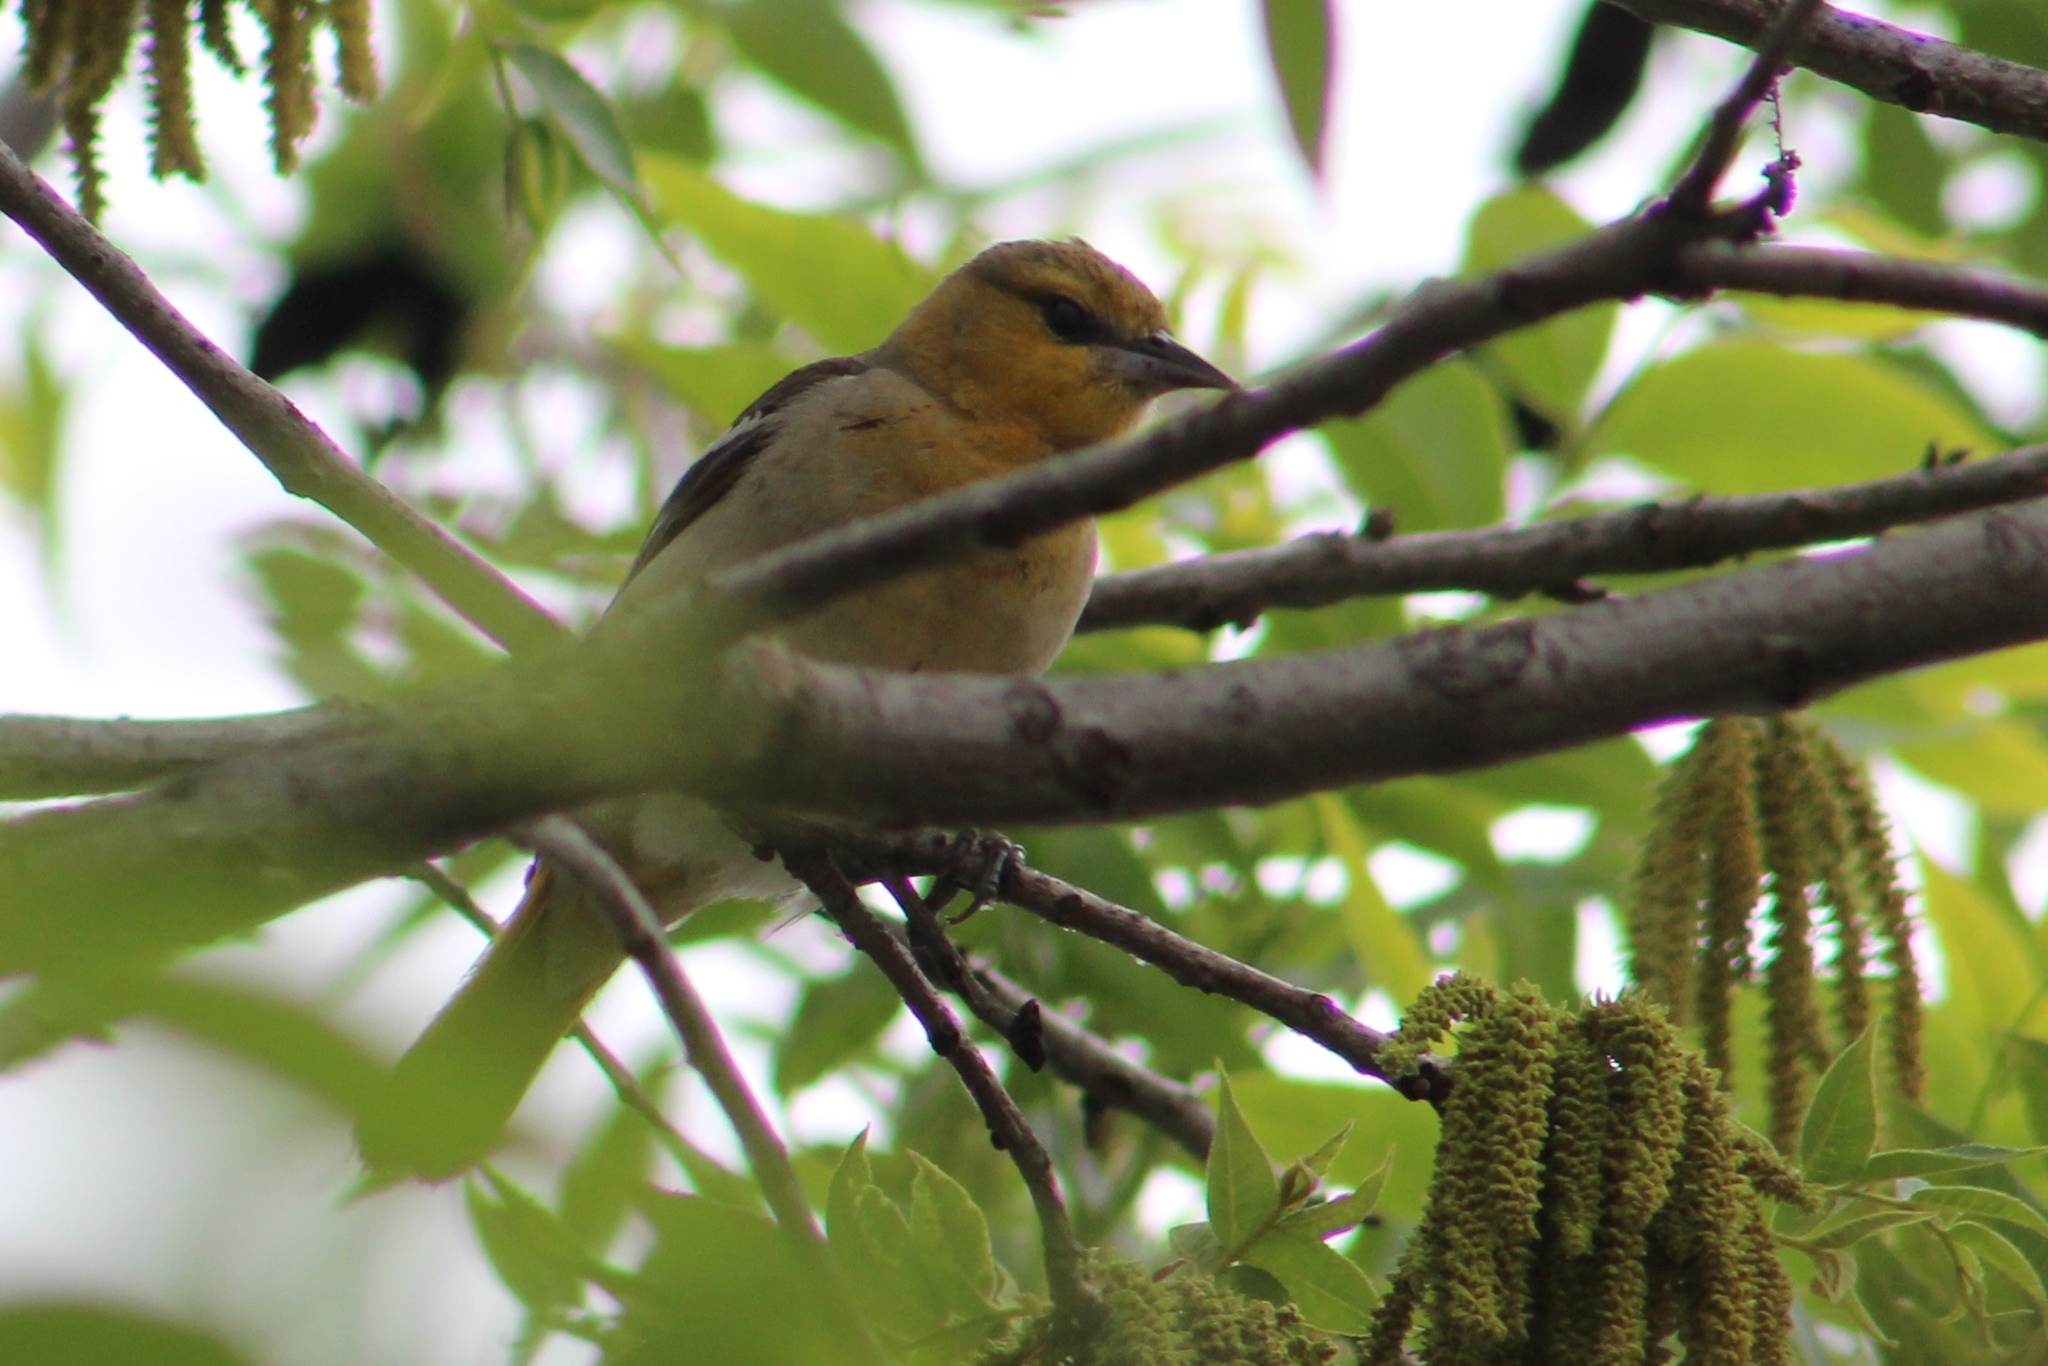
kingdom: Animalia
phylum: Chordata
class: Aves
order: Passeriformes
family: Icteridae
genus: Icterus
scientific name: Icterus bullockii
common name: Bullock's oriole
